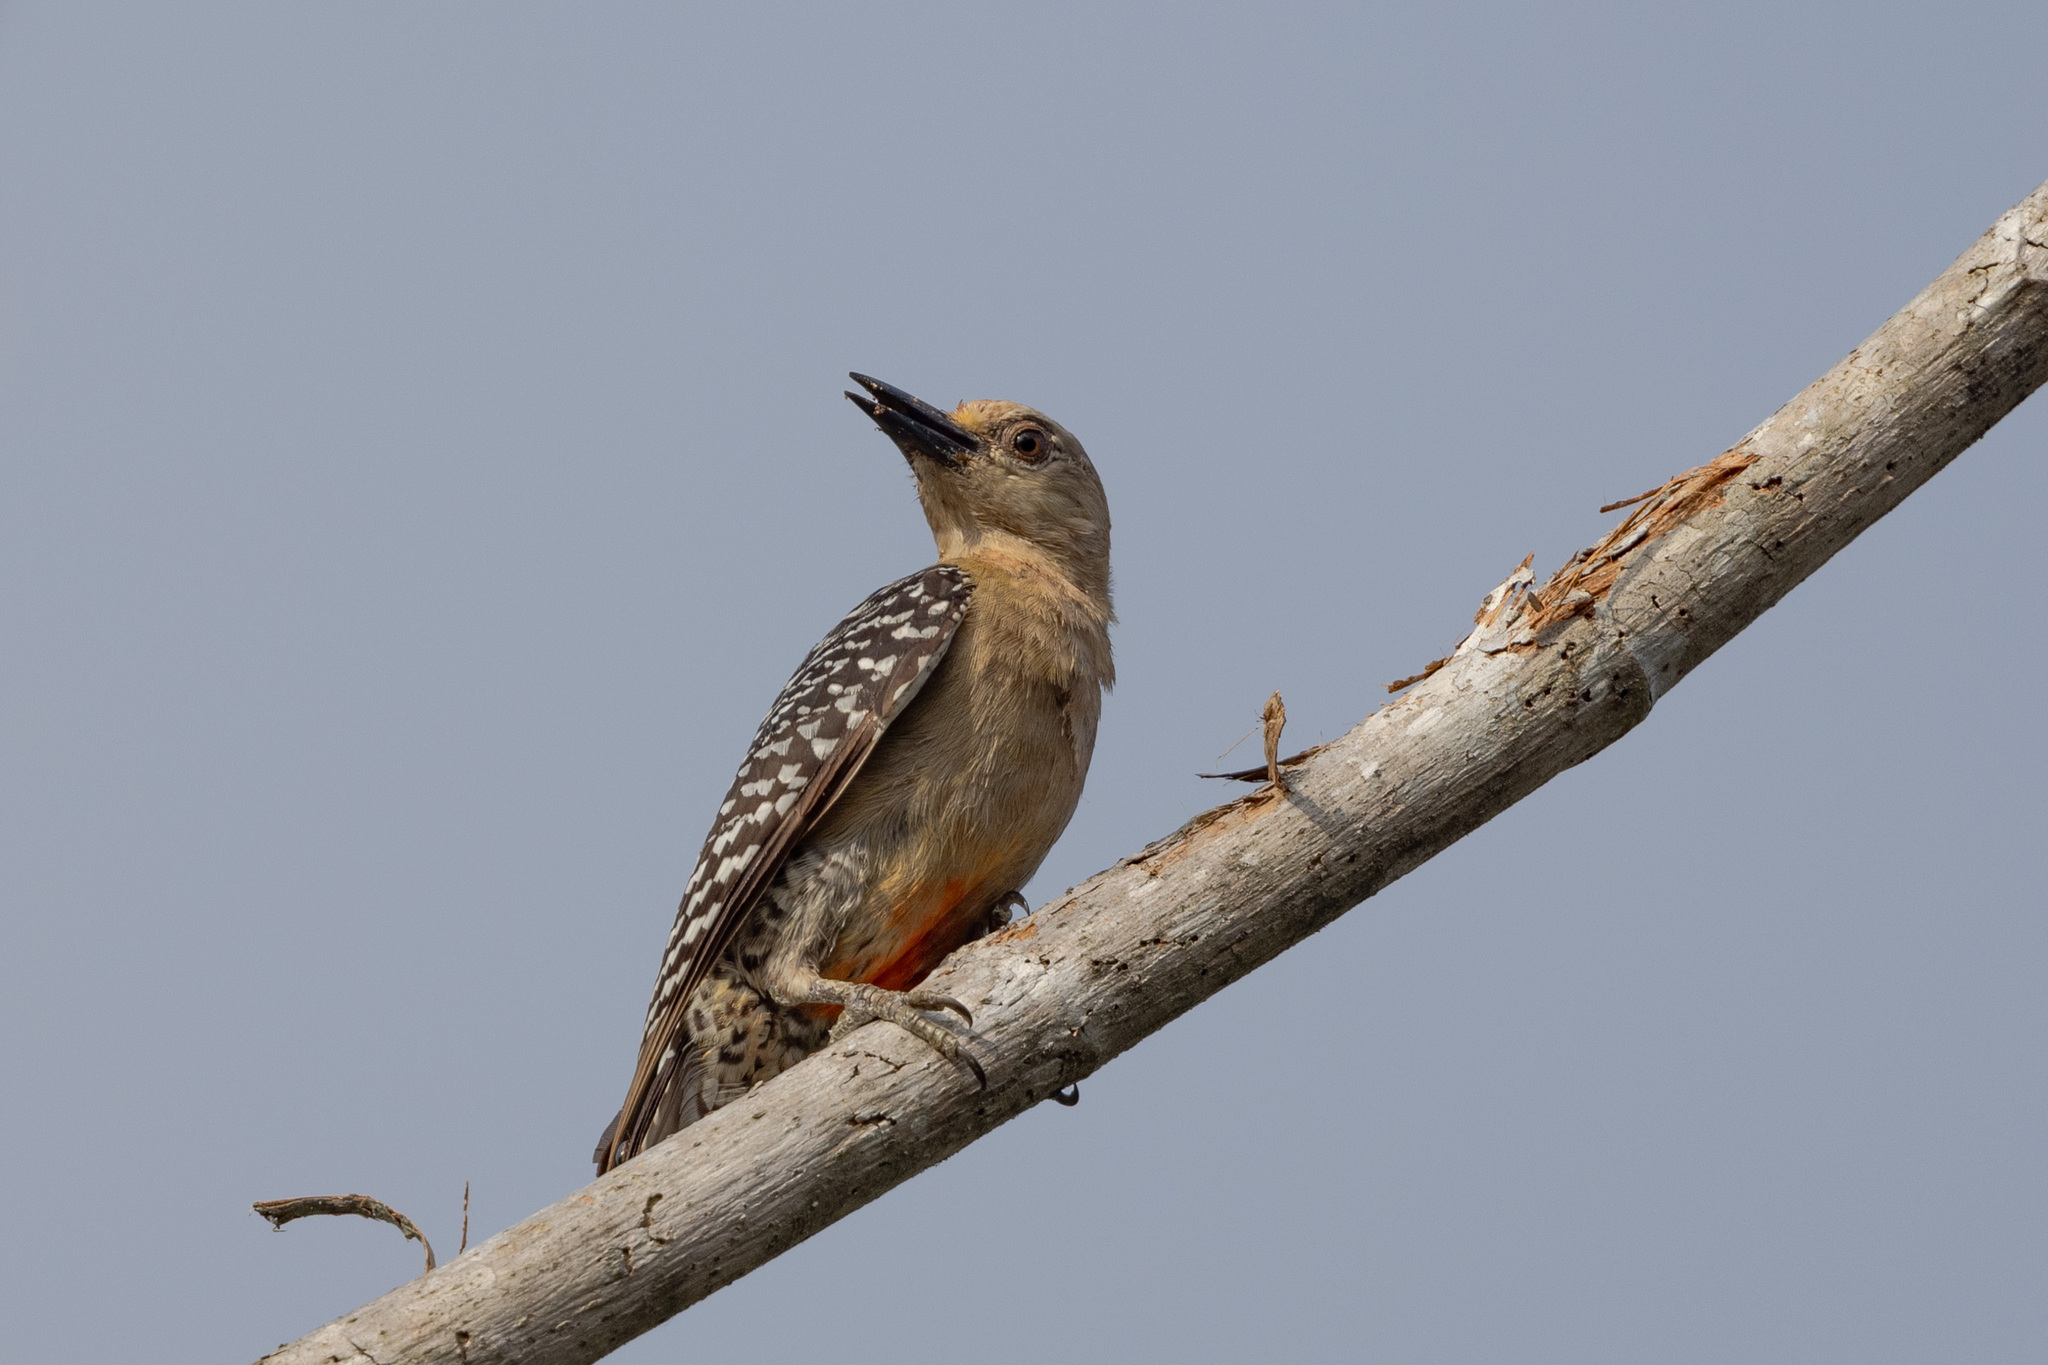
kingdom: Animalia
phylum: Chordata
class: Aves
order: Piciformes
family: Picidae
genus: Melanerpes
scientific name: Melanerpes rubricapillus
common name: Red-crowned woodpecker
